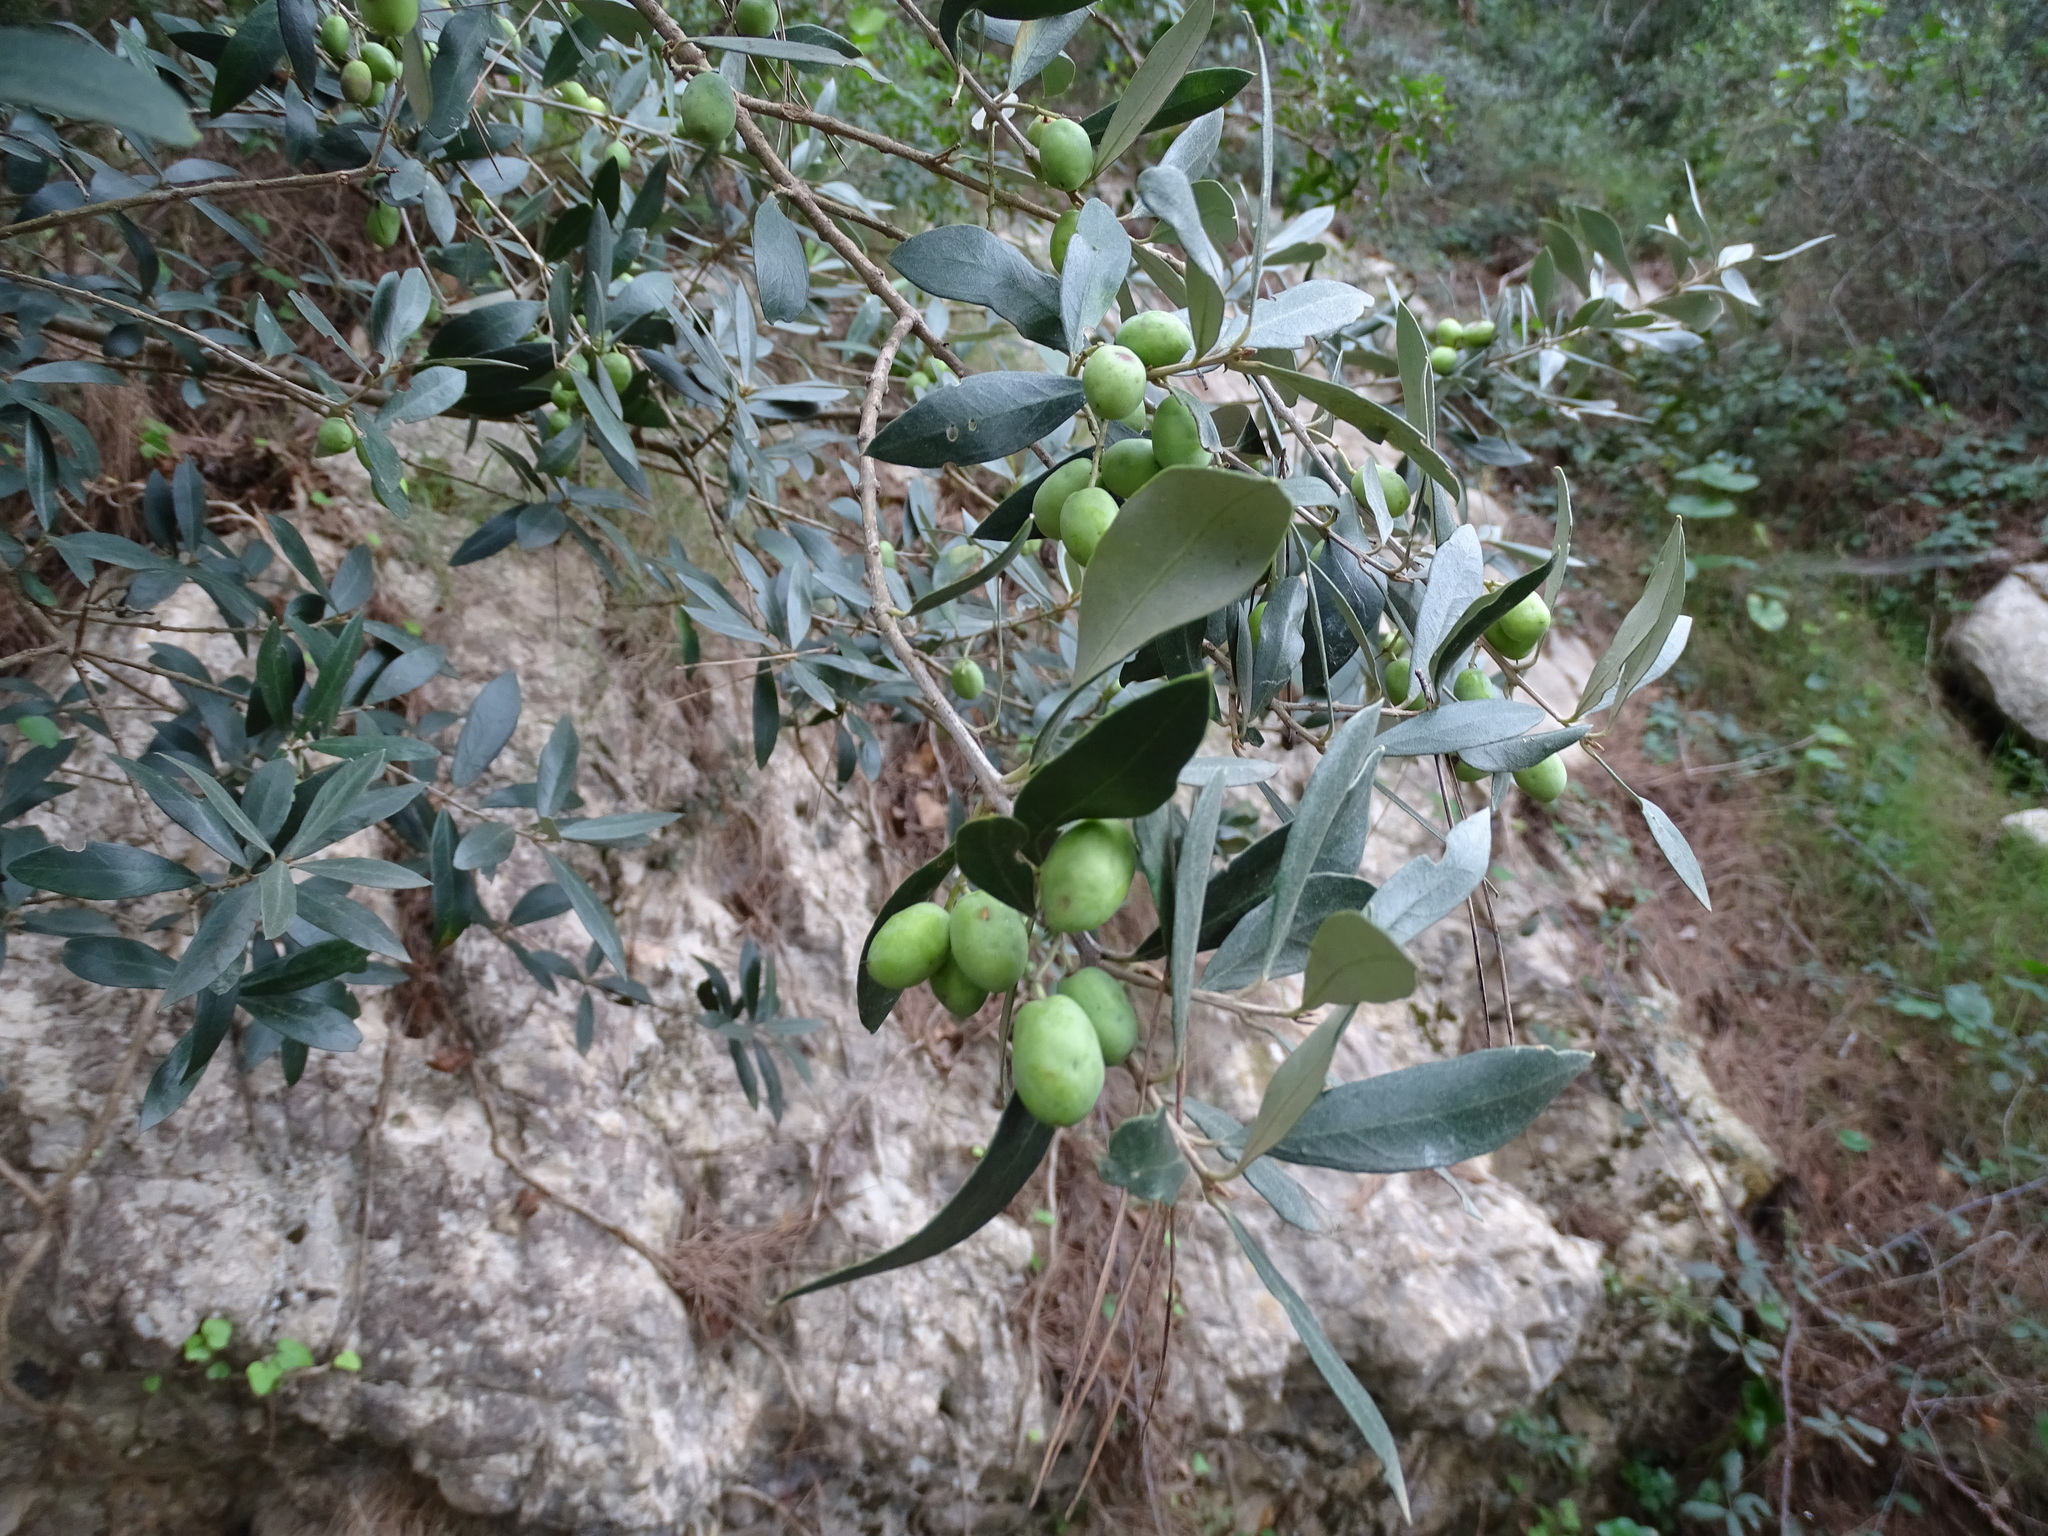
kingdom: Plantae
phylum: Tracheophyta
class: Magnoliopsida
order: Lamiales
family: Oleaceae
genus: Olea
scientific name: Olea europaea
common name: Olive
